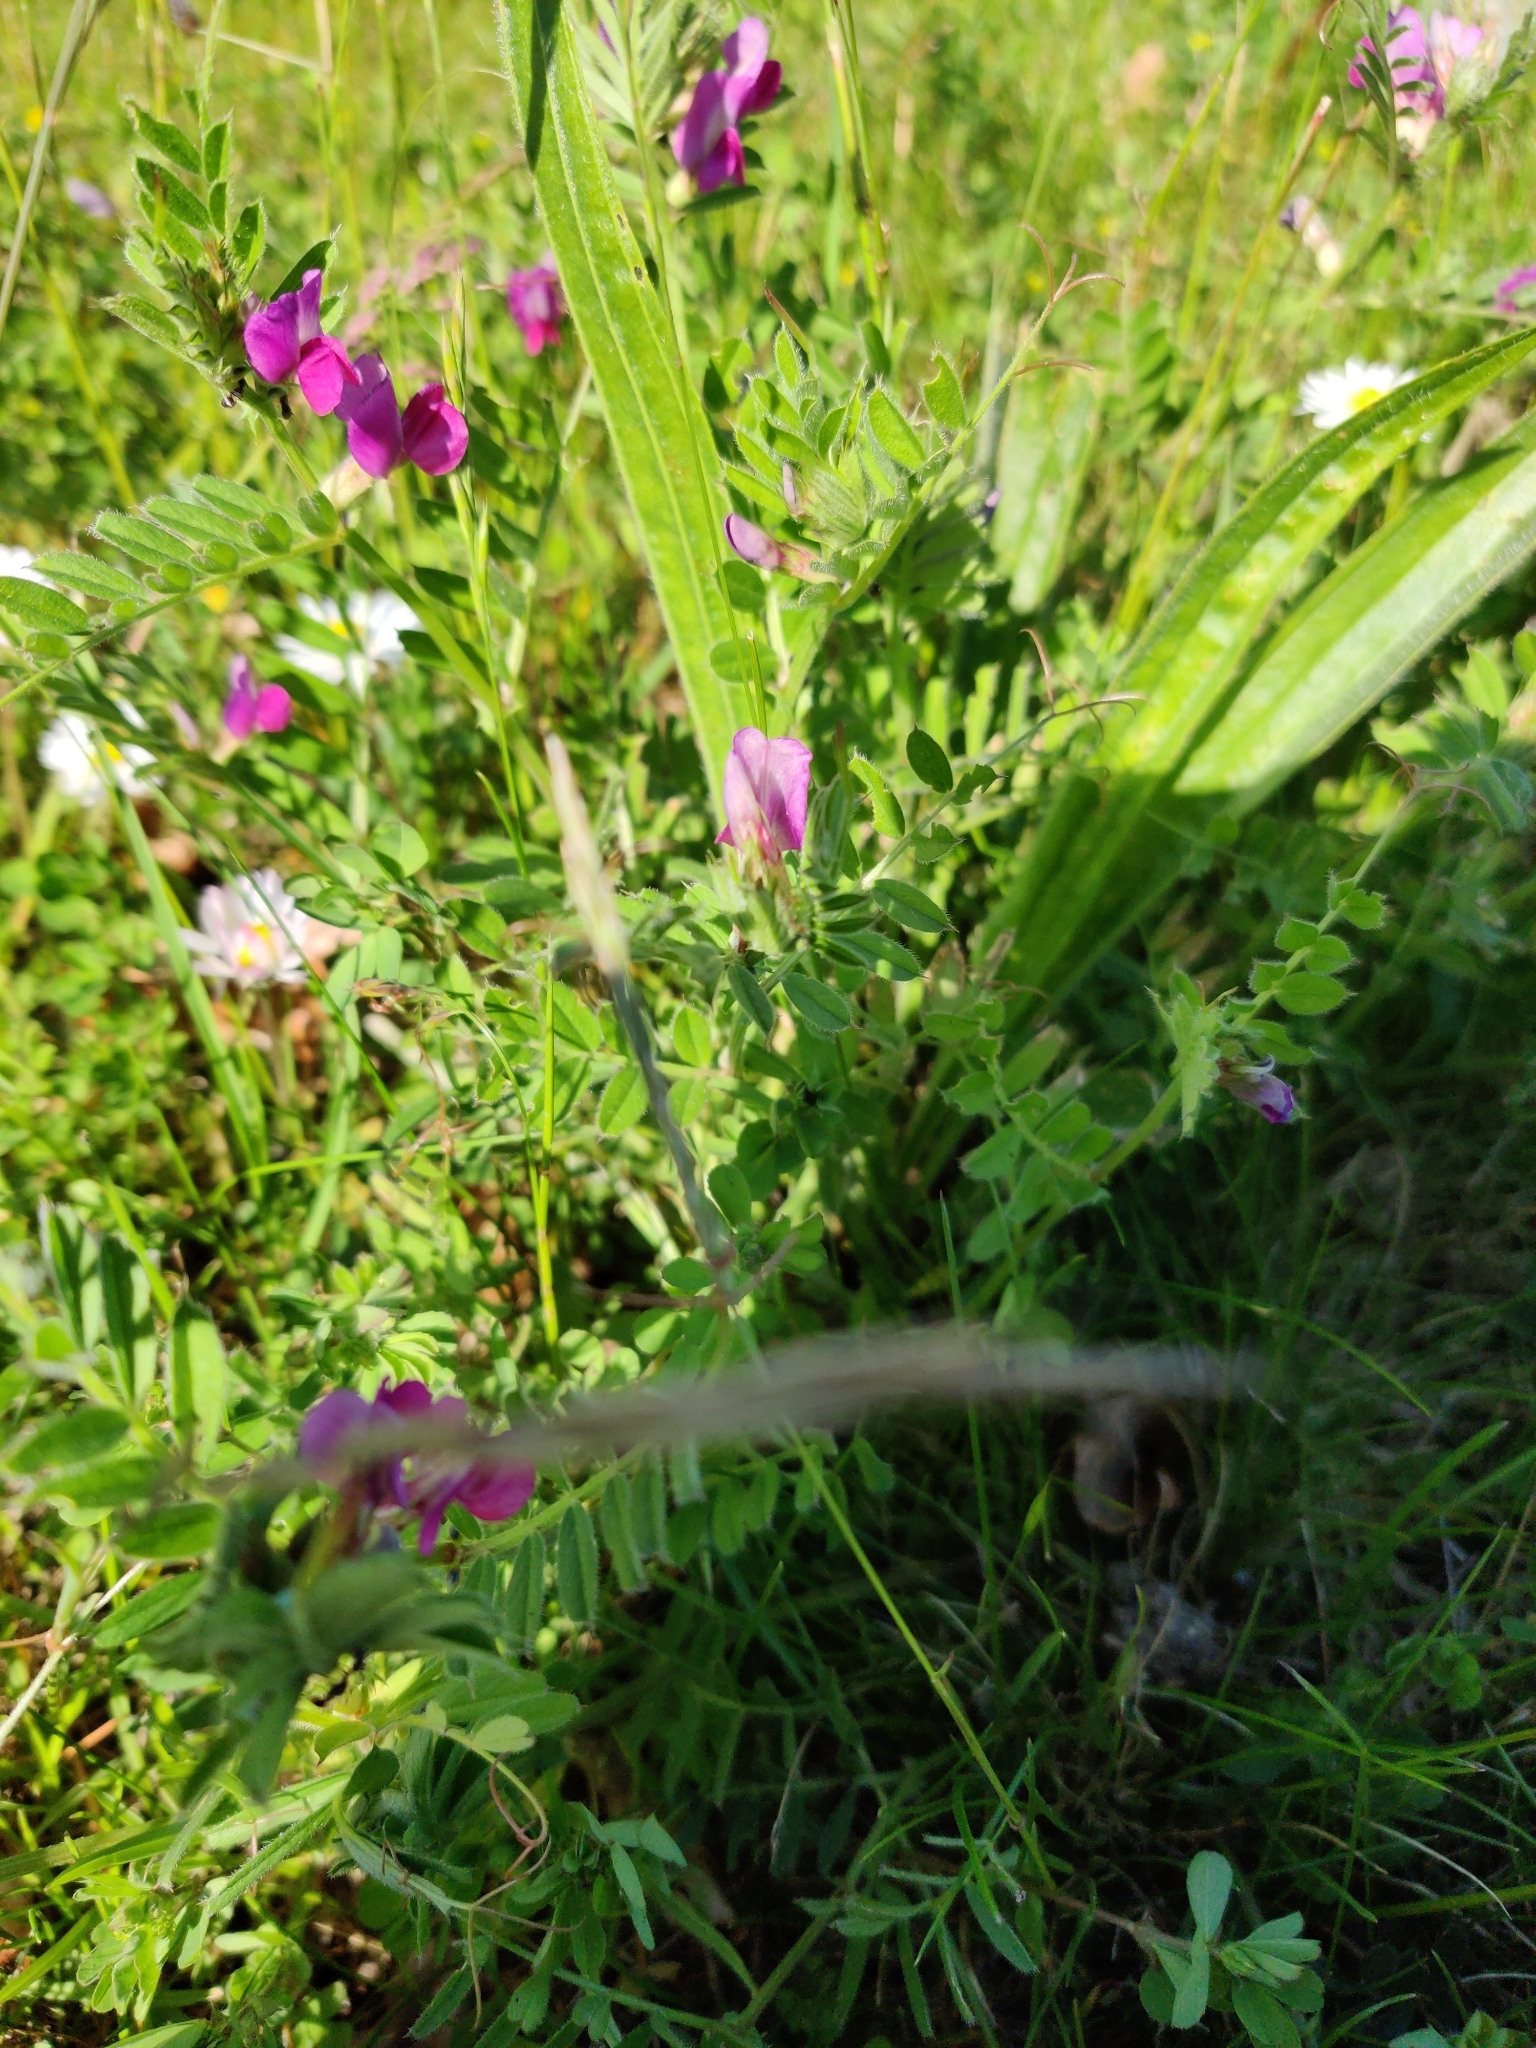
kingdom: Plantae
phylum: Tracheophyta
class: Magnoliopsida
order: Fabales
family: Fabaceae
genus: Vicia
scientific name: Vicia sativa
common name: Garden vetch
